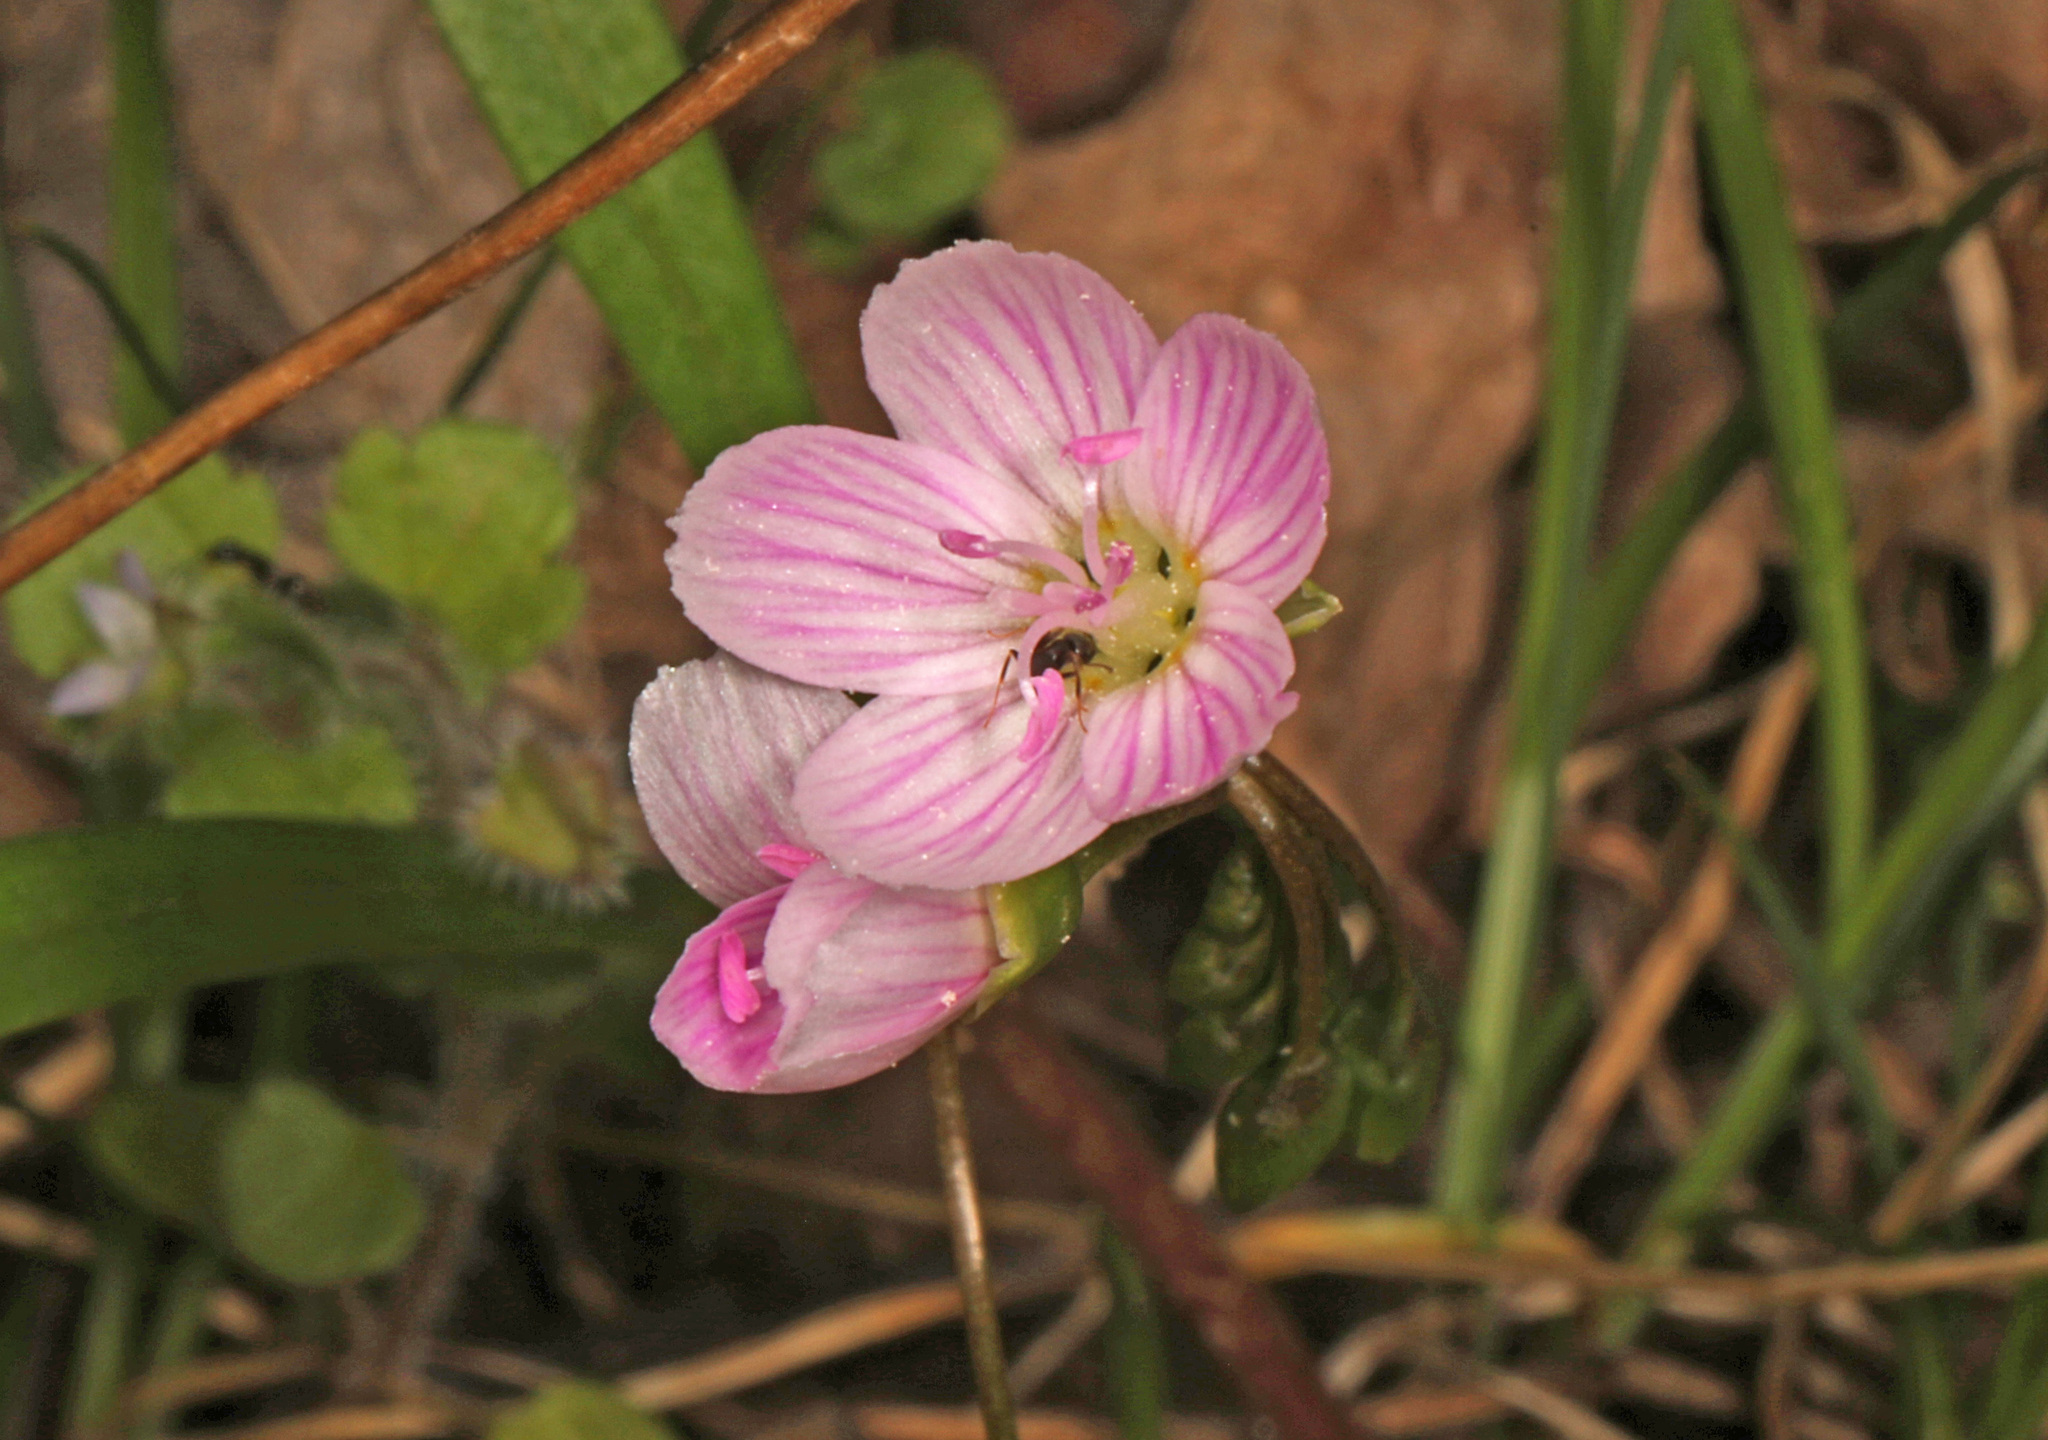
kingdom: Plantae
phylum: Tracheophyta
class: Magnoliopsida
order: Caryophyllales
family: Montiaceae
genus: Claytonia
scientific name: Claytonia virginica
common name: Virginia springbeauty
